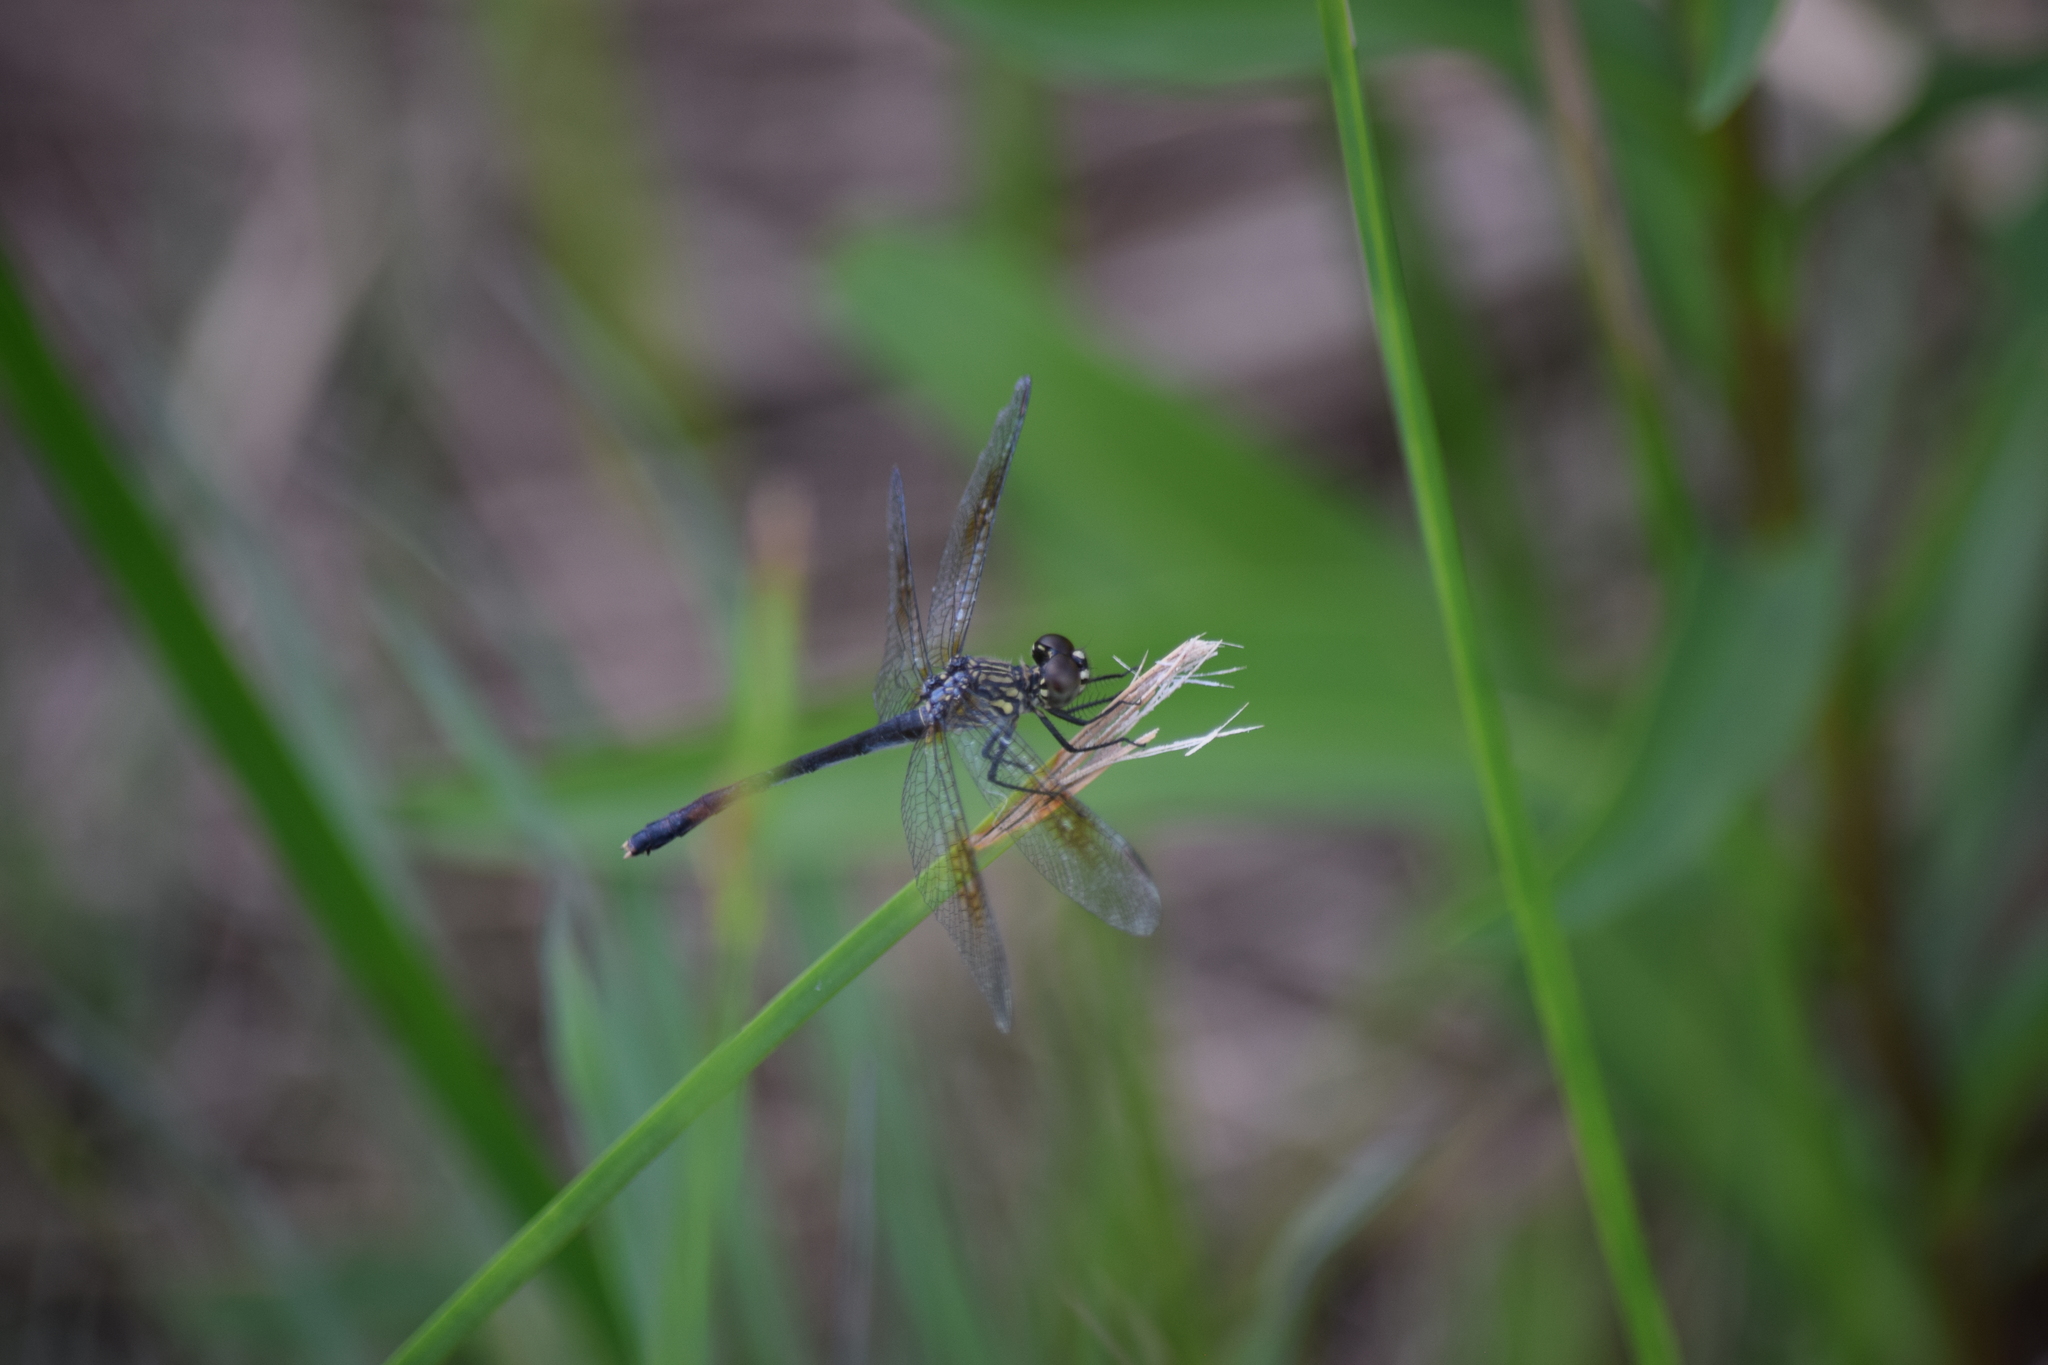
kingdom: Animalia
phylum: Arthropoda
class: Insecta
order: Odonata
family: Libellulidae
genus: Erythrodiplax
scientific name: Erythrodiplax berenice
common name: Seaside dragonlet
